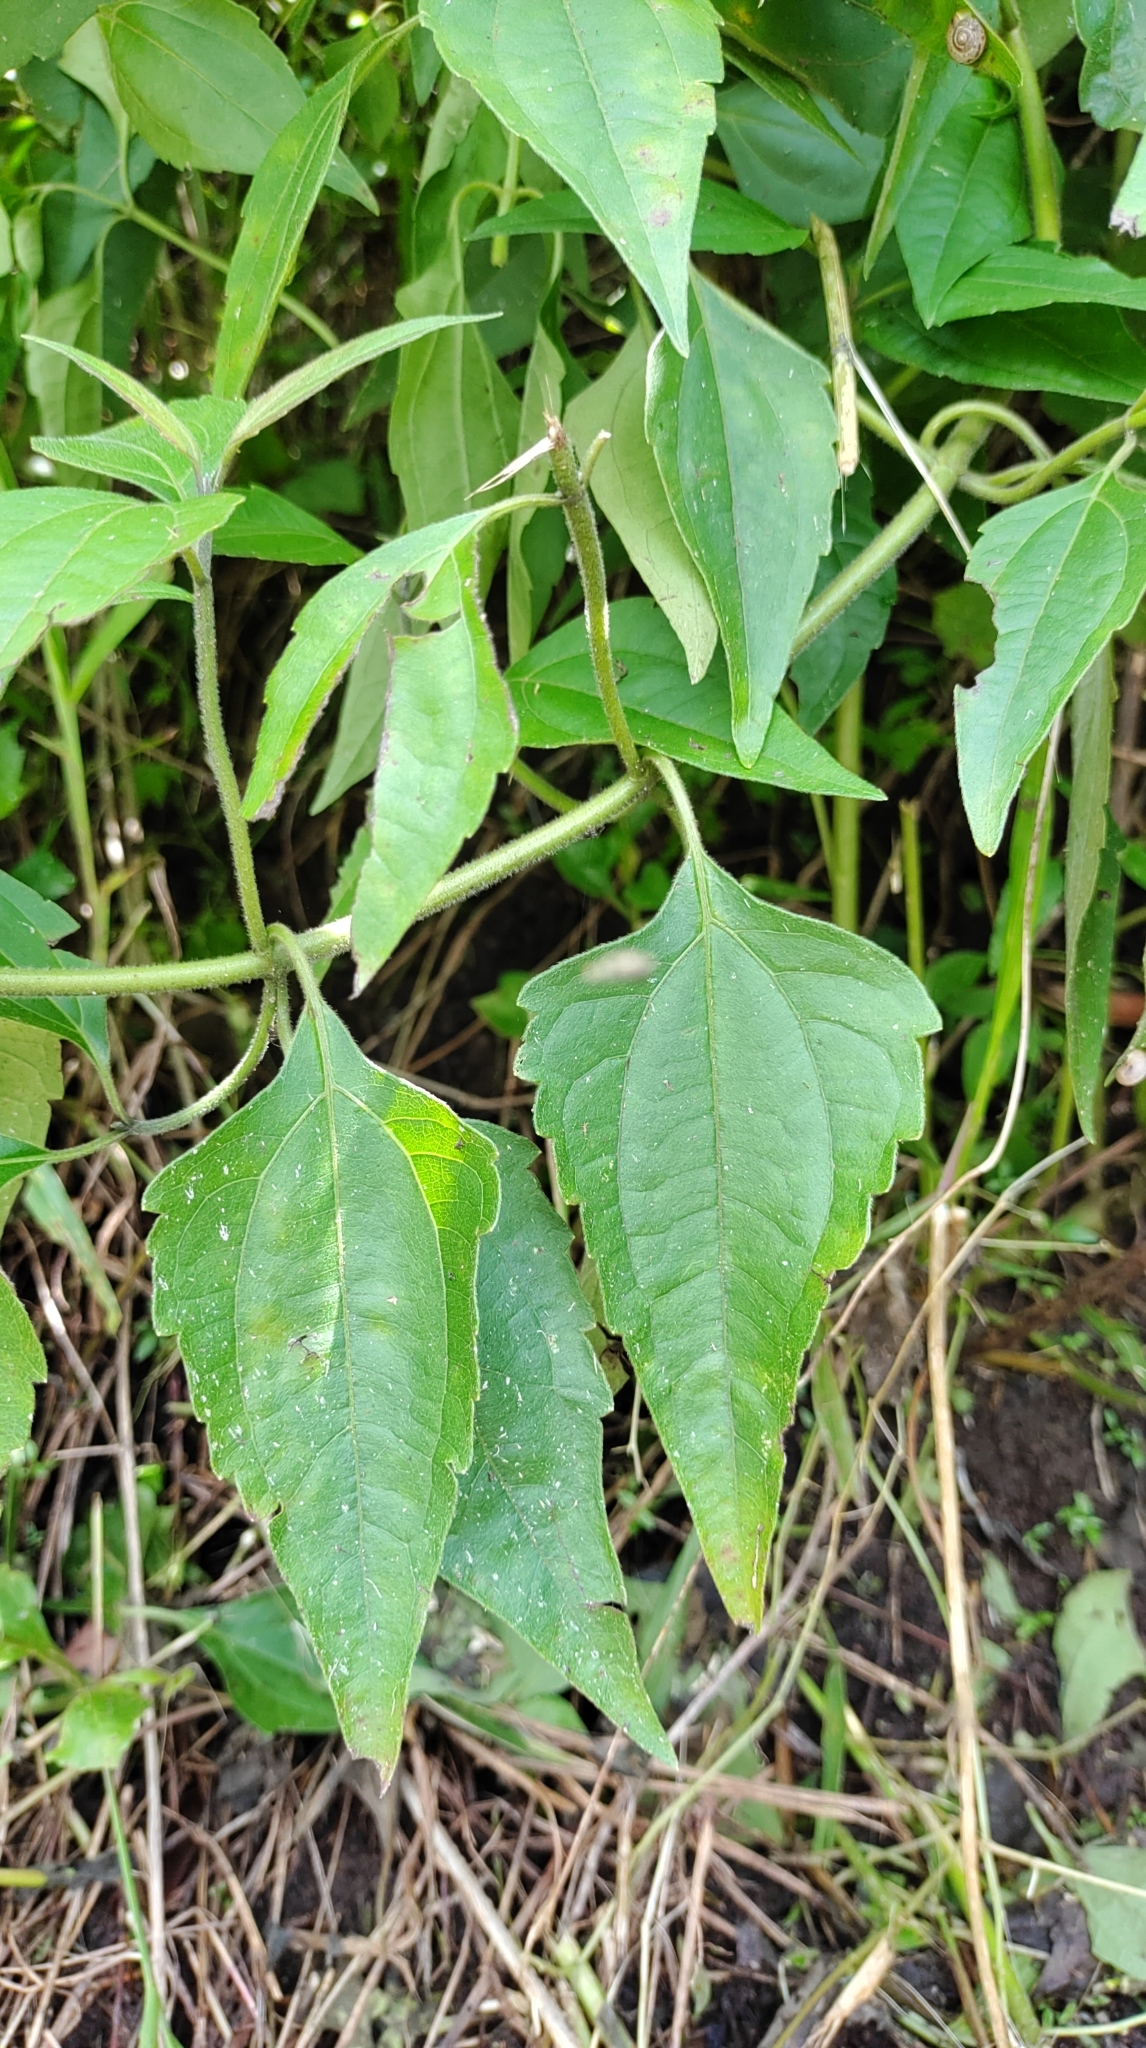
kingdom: Plantae
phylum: Tracheophyta
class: Magnoliopsida
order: Asterales
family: Asteraceae
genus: Chromolaena
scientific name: Chromolaena odorata
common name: Siamweed
